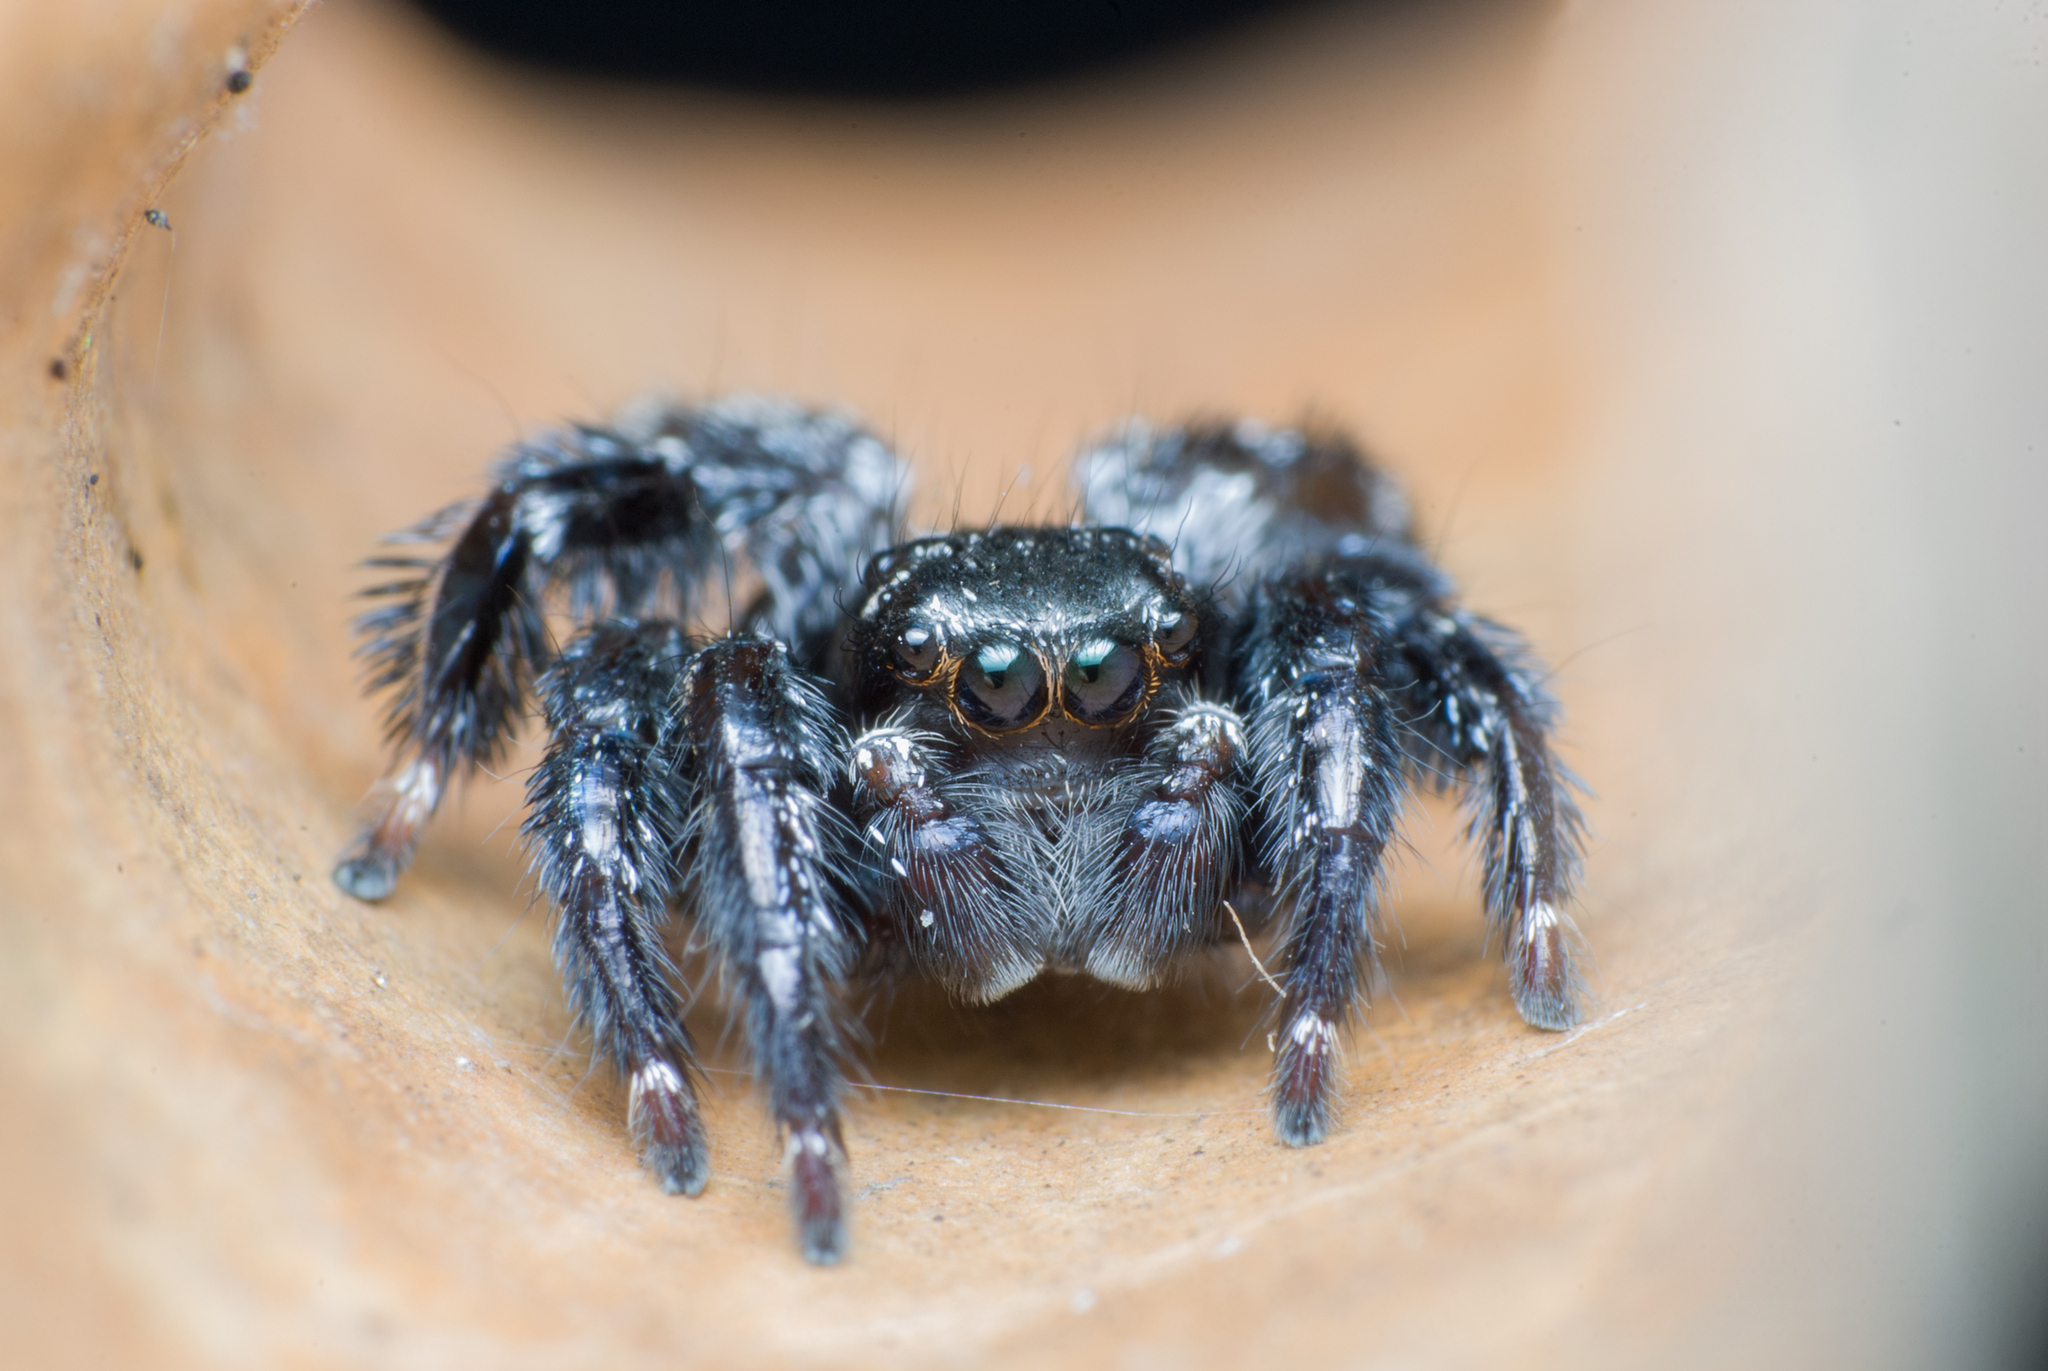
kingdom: Animalia
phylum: Arthropoda
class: Arachnida
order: Araneae
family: Salticidae
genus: Corythalia
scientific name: Corythalia spiralis
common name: Jumping spiders
